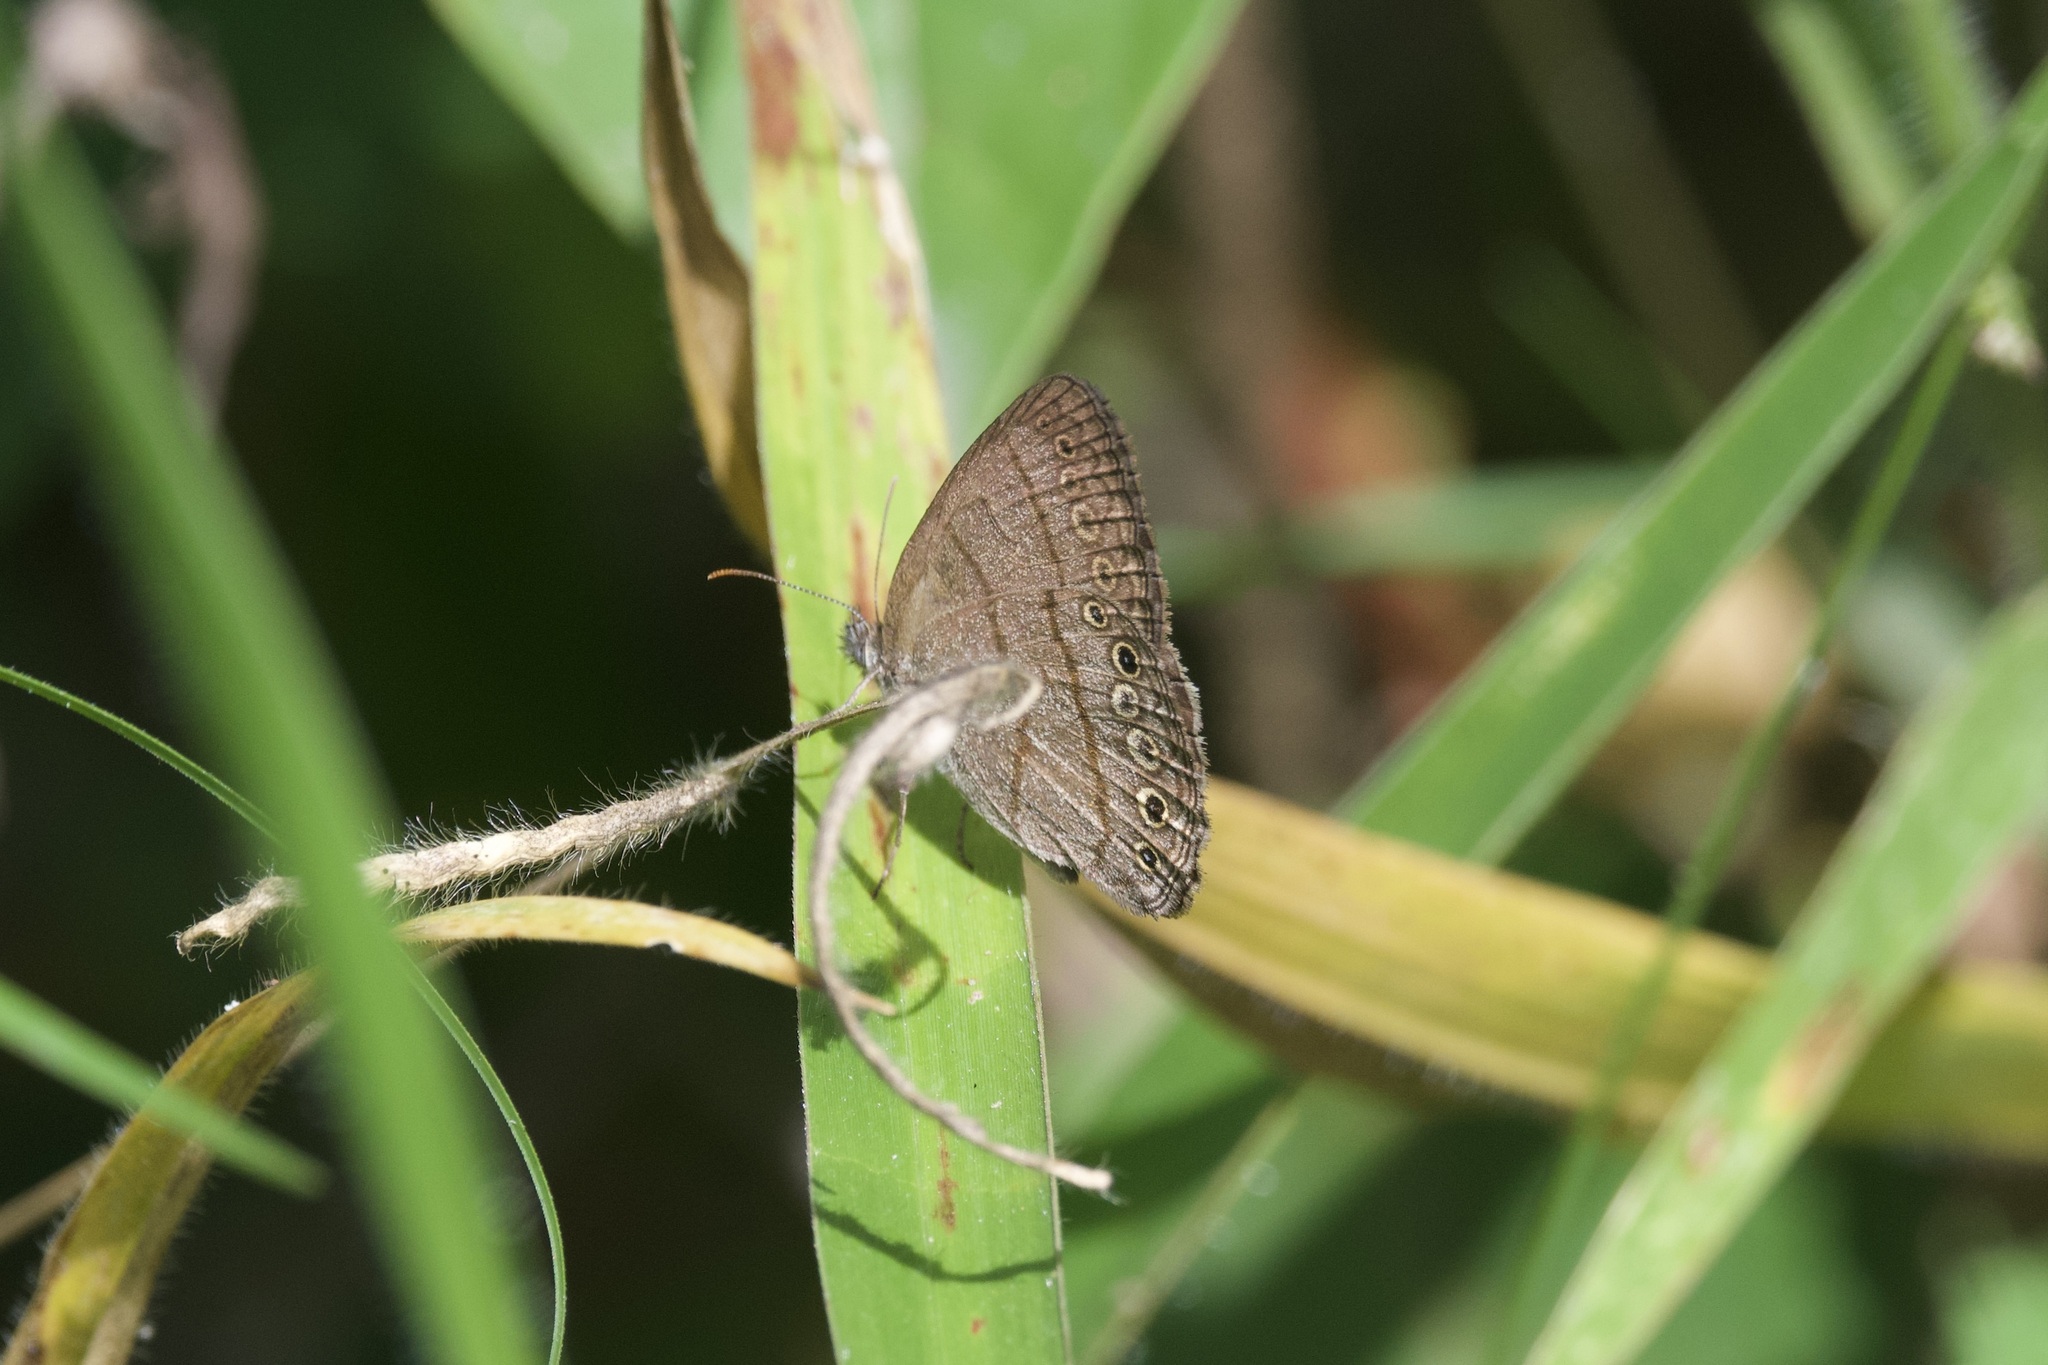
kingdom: Animalia
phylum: Arthropoda
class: Insecta
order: Lepidoptera
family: Nymphalidae
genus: Hermeuptychia
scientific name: Hermeuptychia hermes
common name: Hermes satyr
